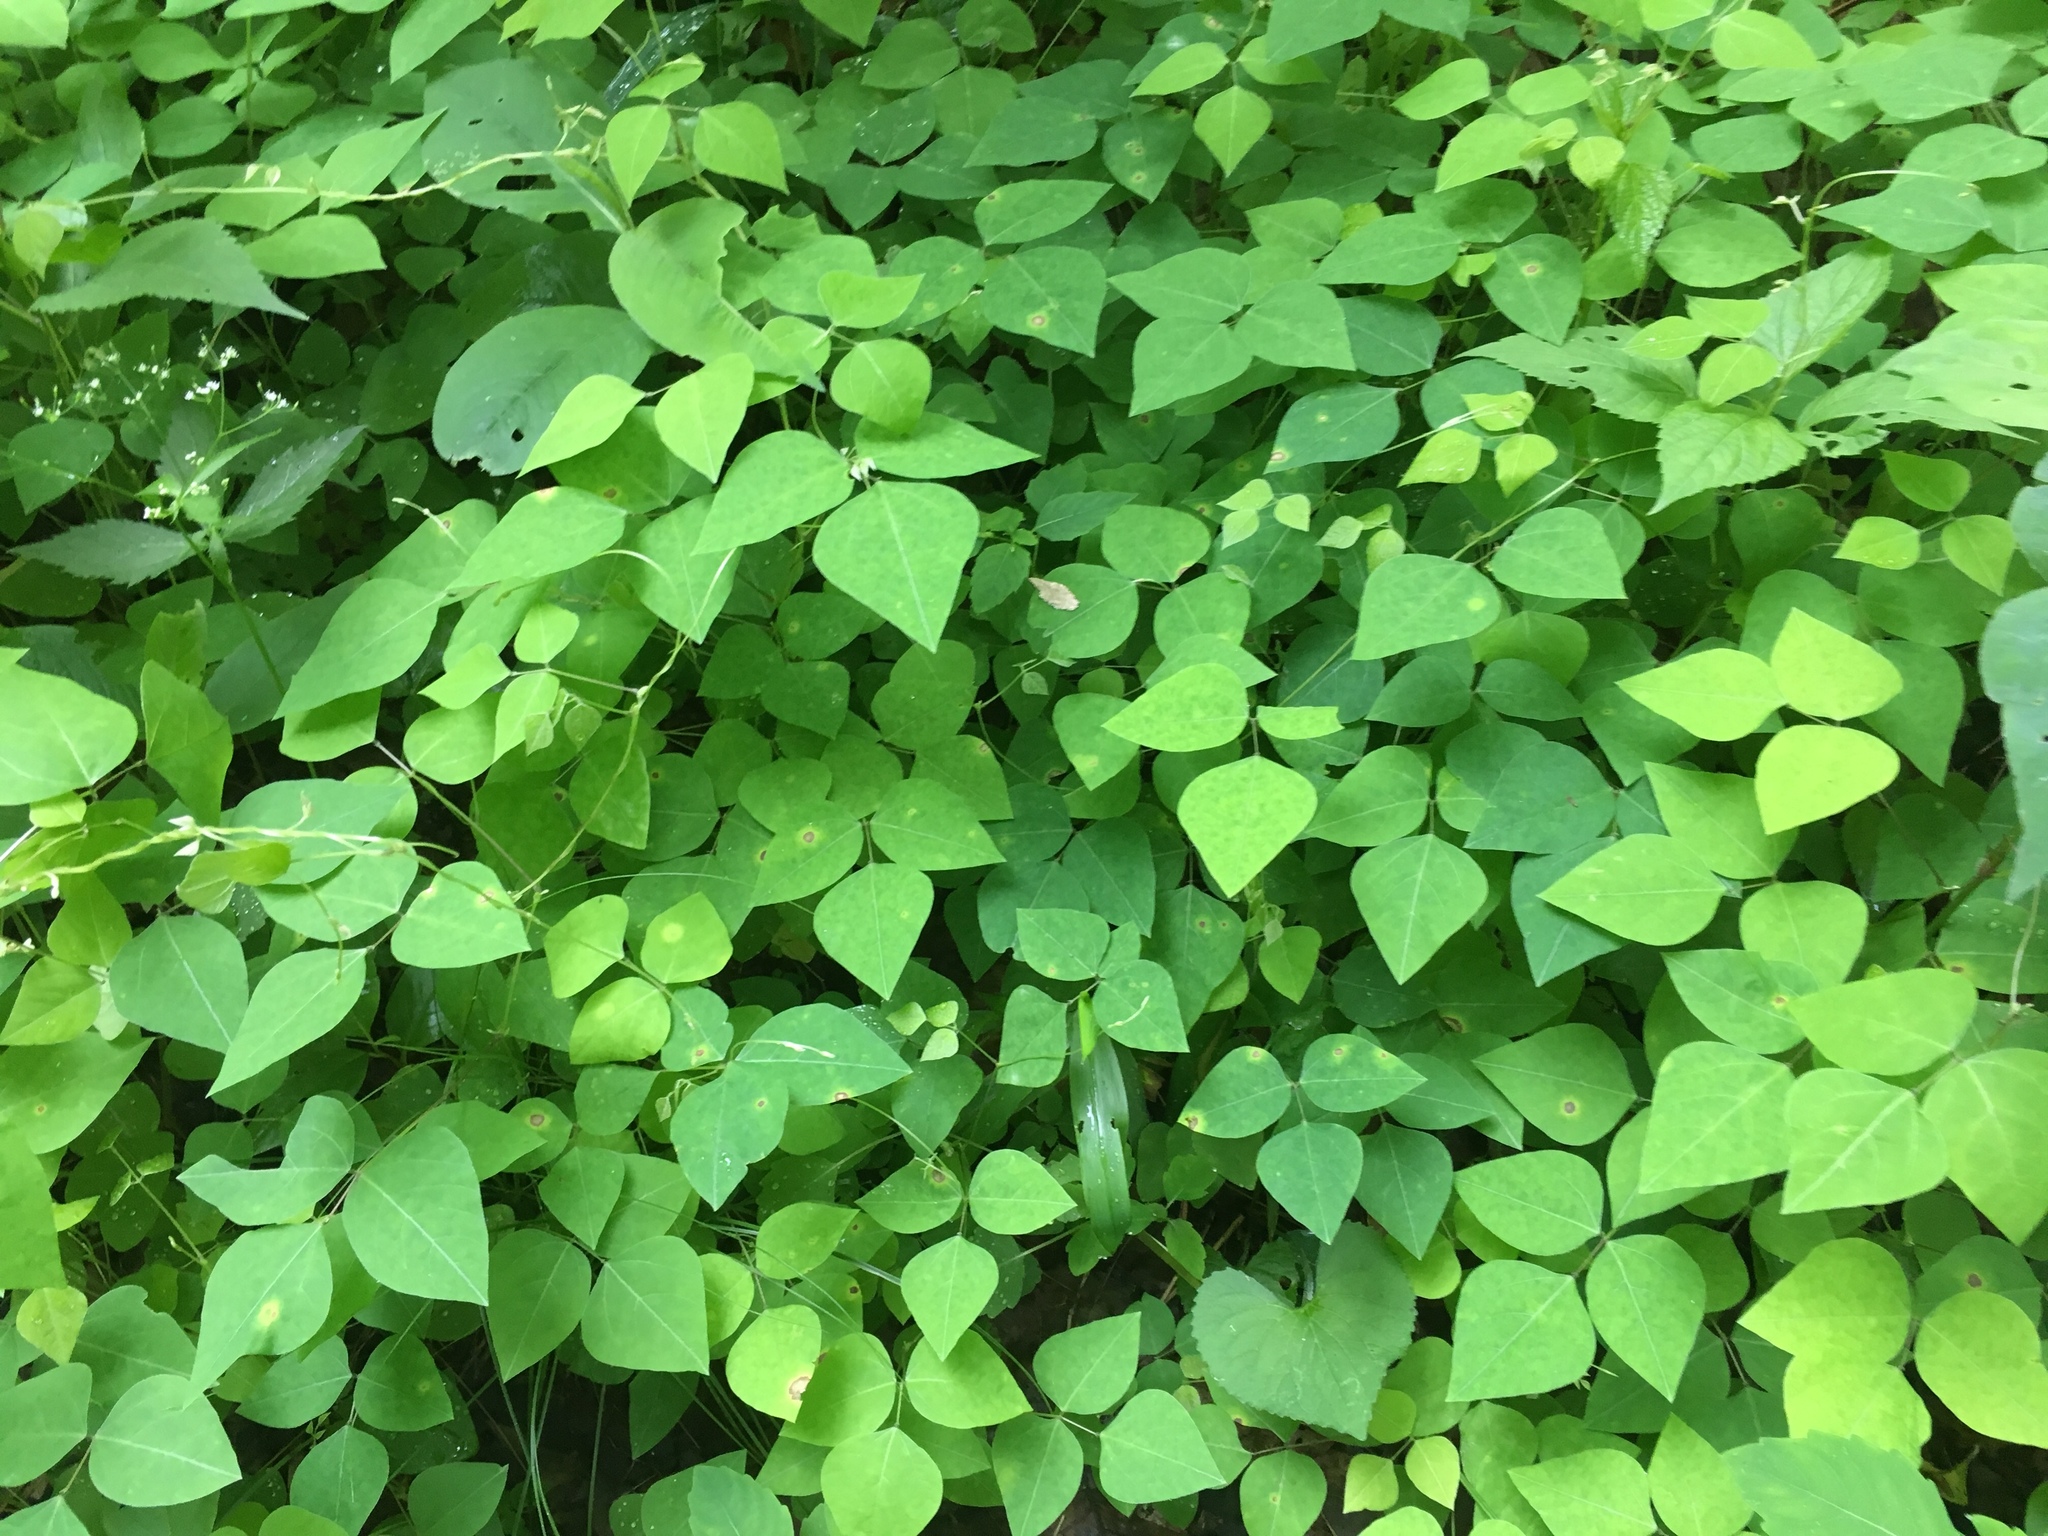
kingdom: Plantae
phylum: Tracheophyta
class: Magnoliopsida
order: Fabales
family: Fabaceae
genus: Amphicarpaea
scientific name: Amphicarpaea bracteata
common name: American hog peanut
